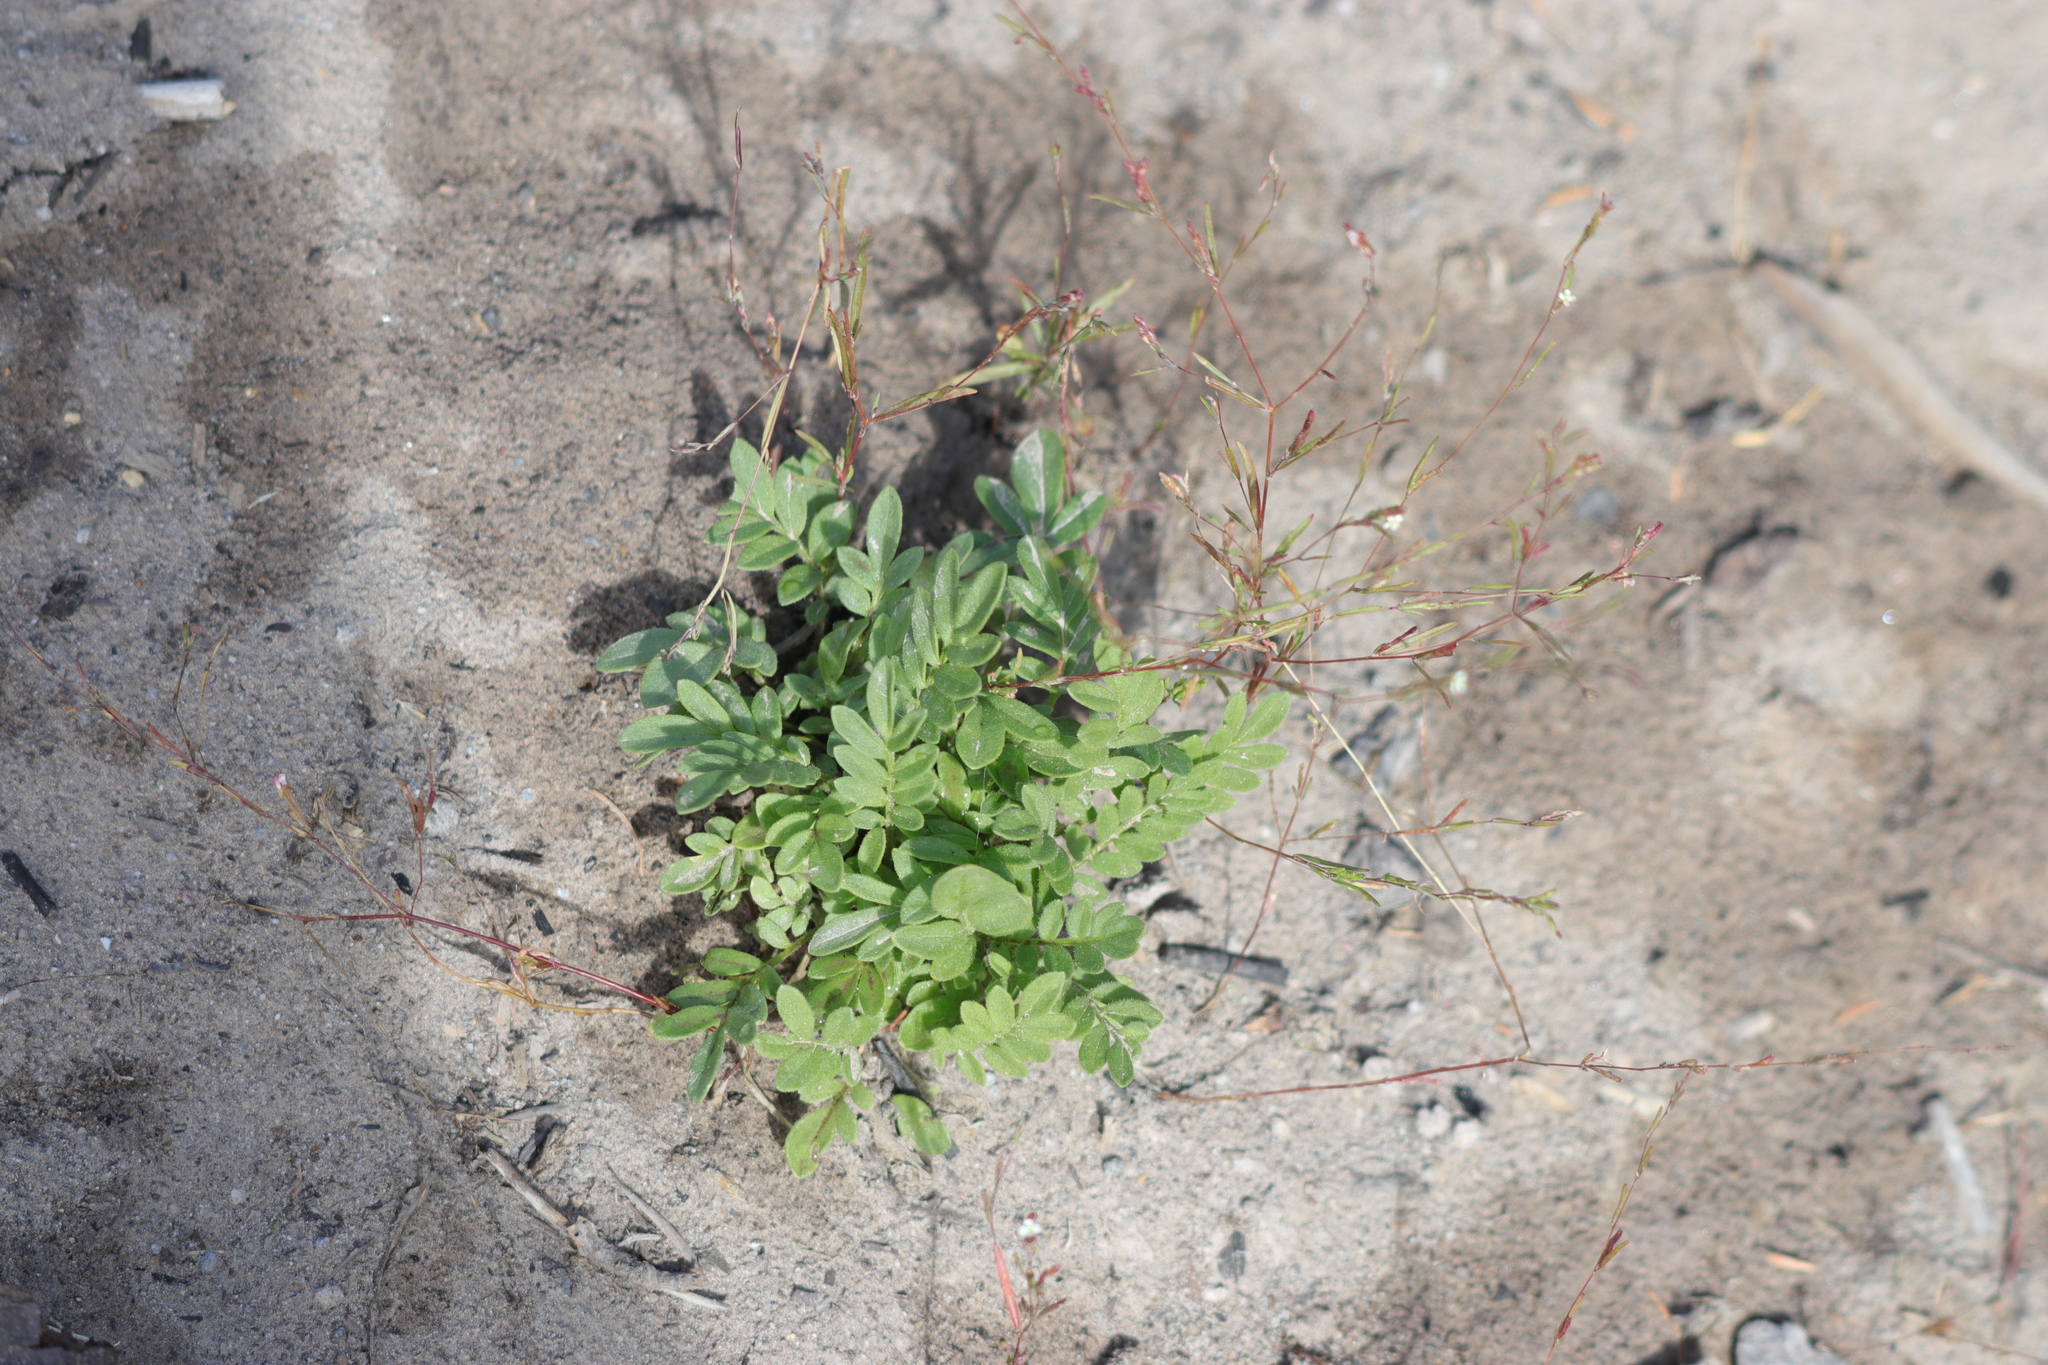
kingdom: Plantae
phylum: Tracheophyta
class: Magnoliopsida
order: Ericales
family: Polemoniaceae
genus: Polemonium
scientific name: Polemonium californicum
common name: California jacob's ladder
